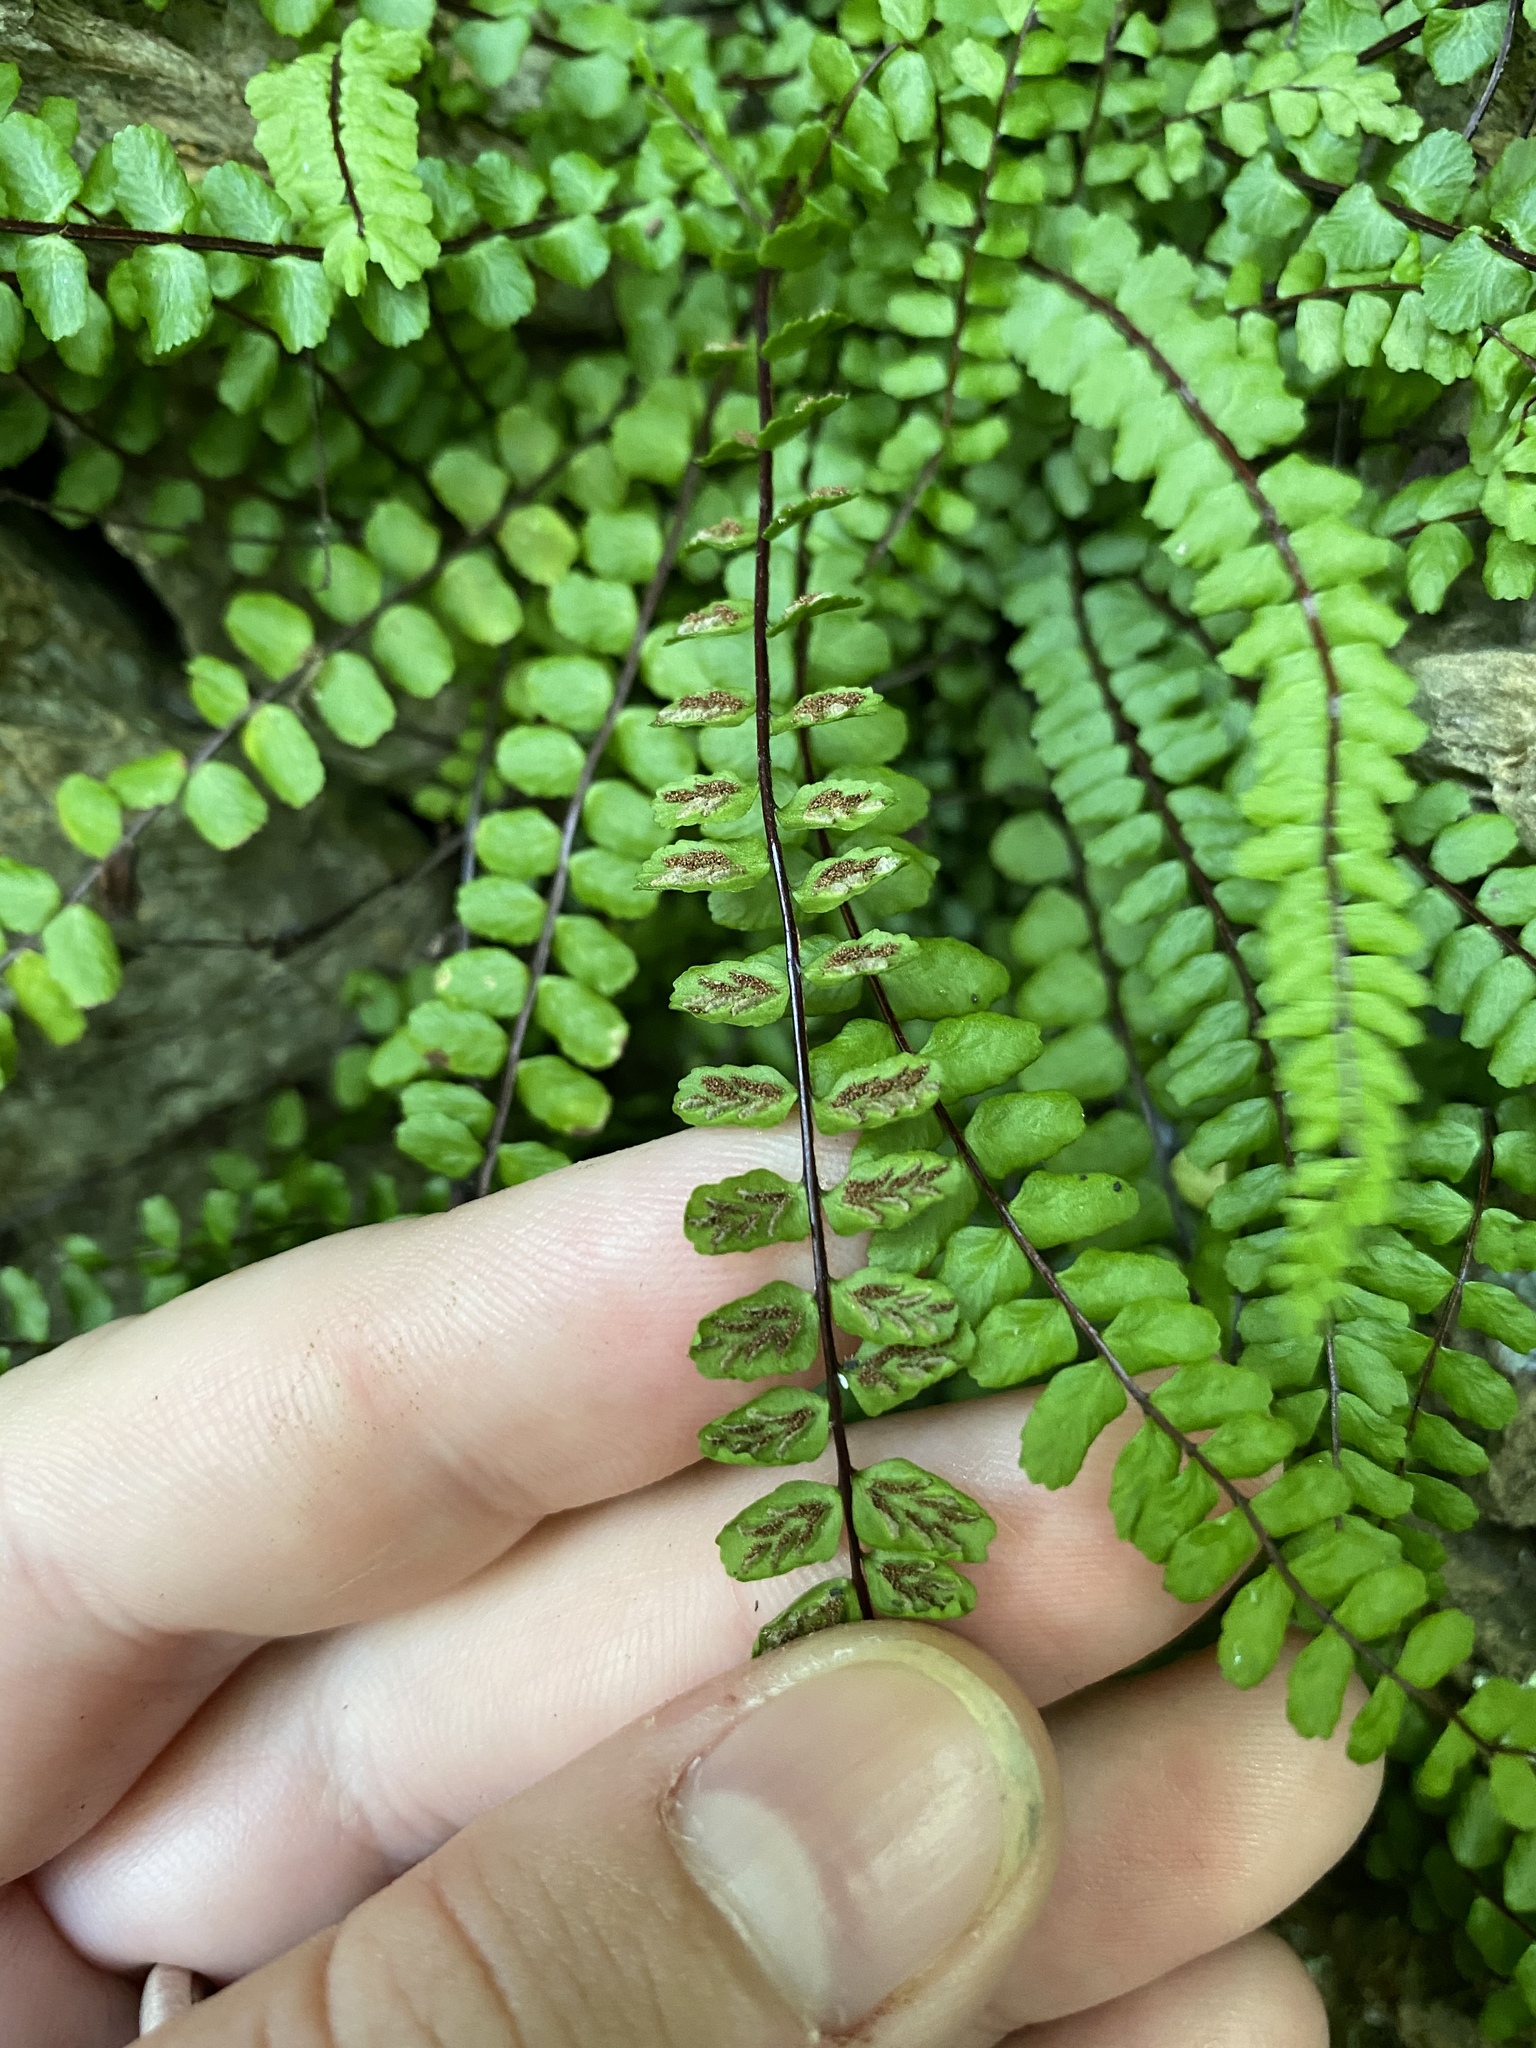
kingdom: Plantae
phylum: Tracheophyta
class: Polypodiopsida
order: Polypodiales
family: Aspleniaceae
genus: Asplenium
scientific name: Asplenium trichomanes
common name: Maidenhair spleenwort
